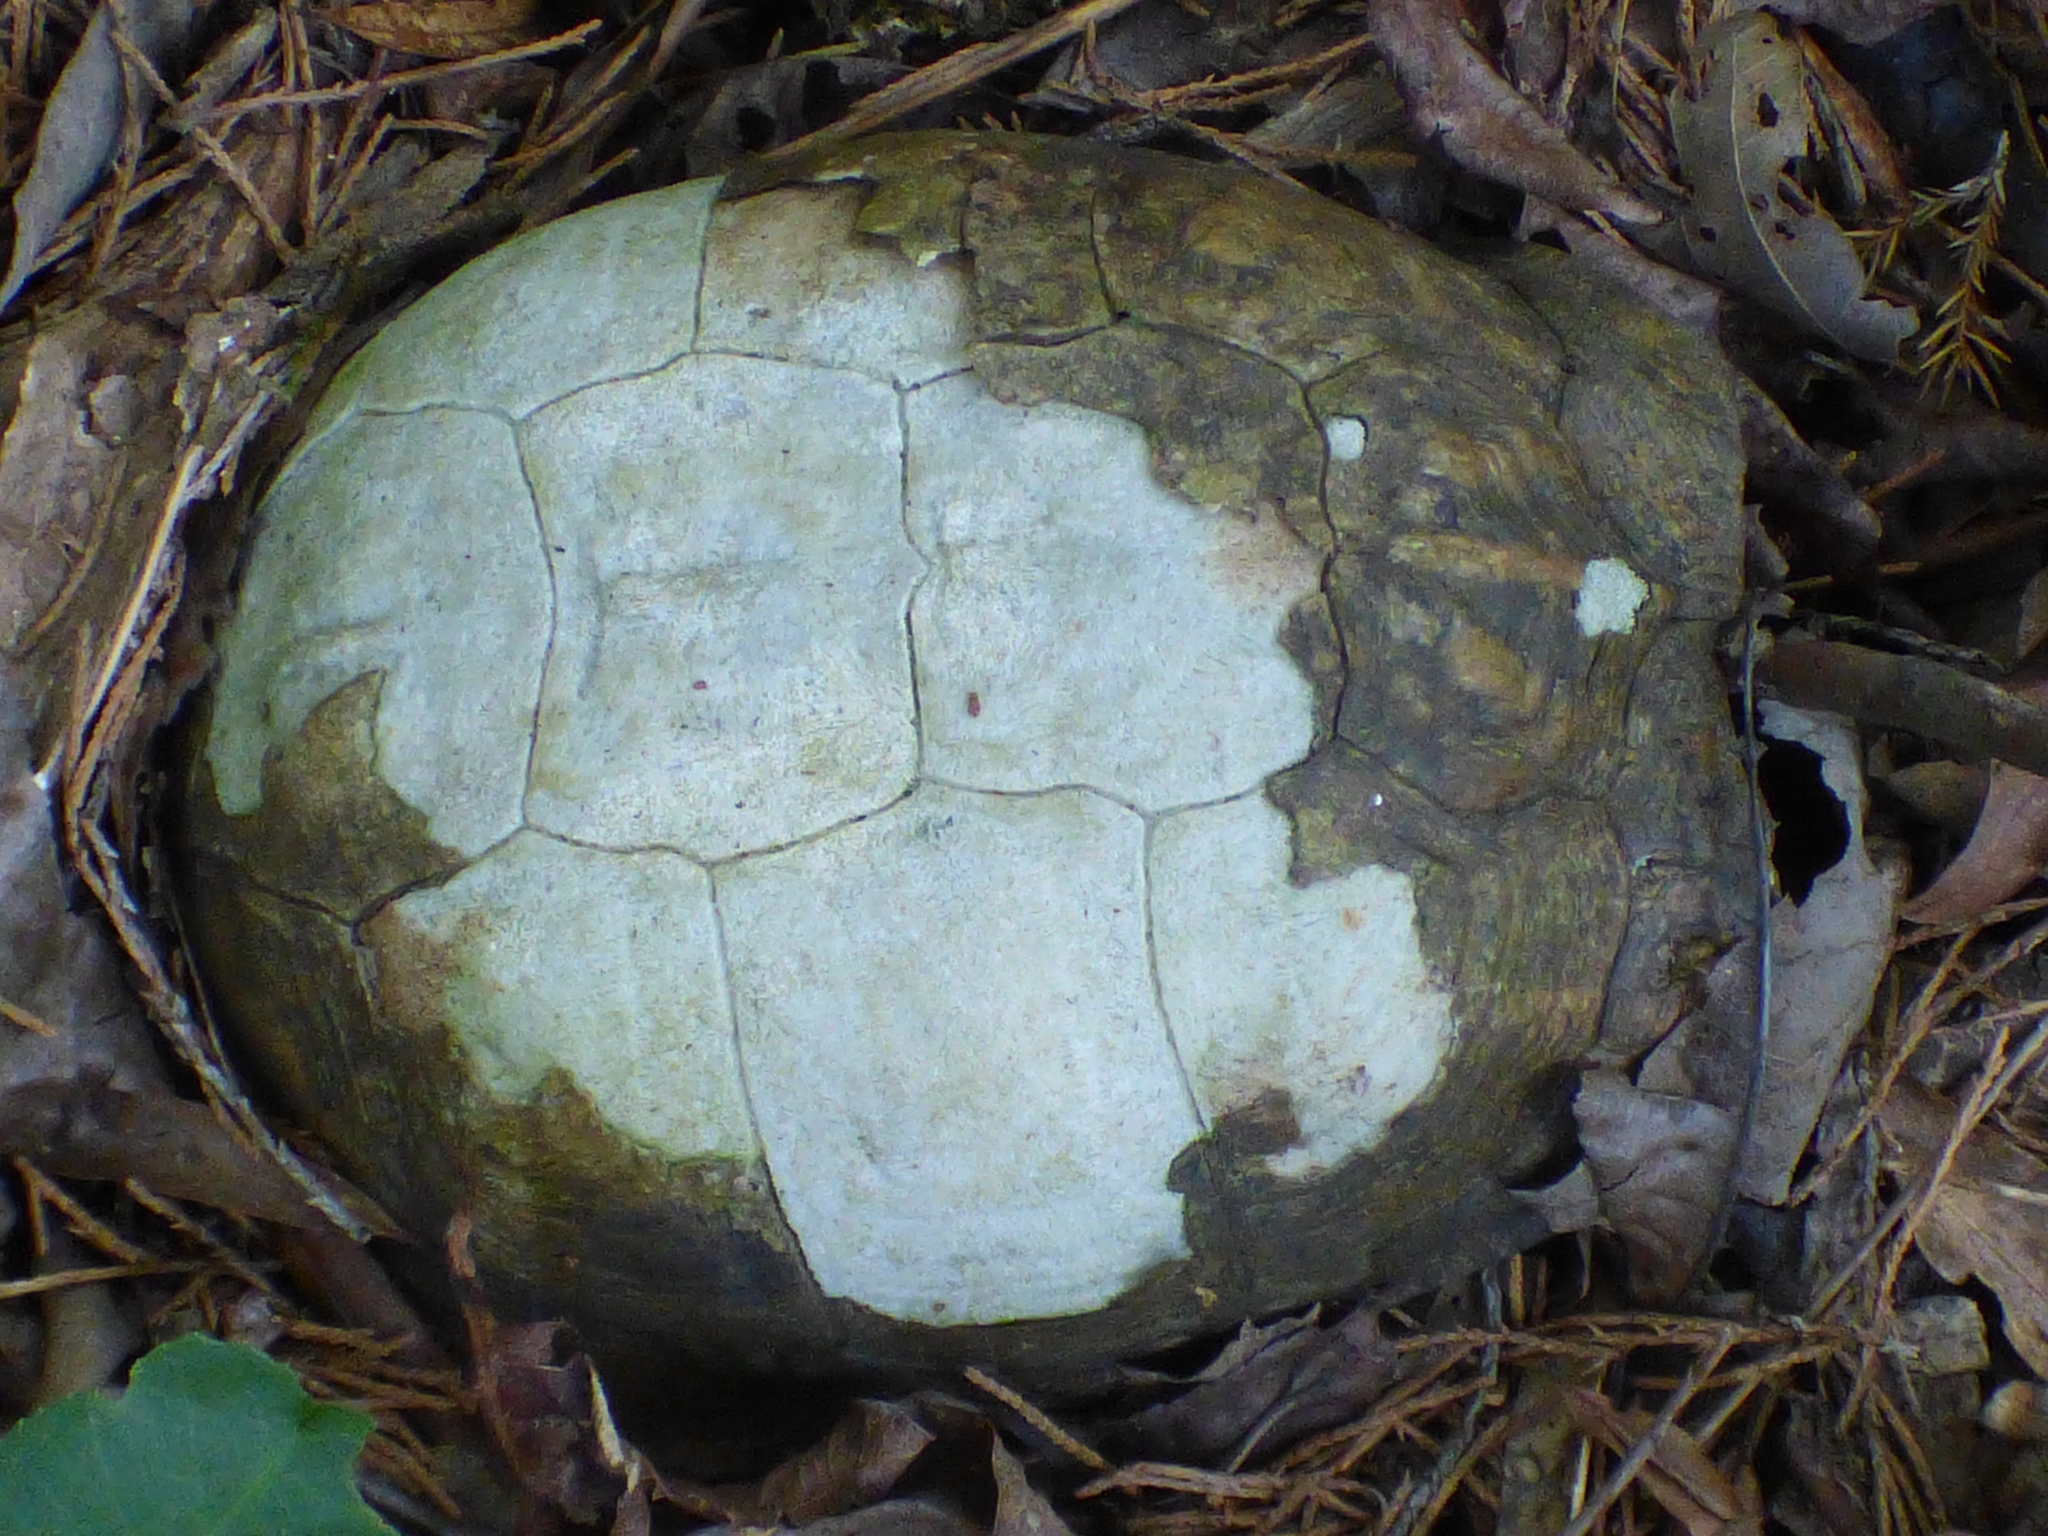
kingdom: Animalia
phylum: Chordata
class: Testudines
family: Emydidae
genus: Terrapene
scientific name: Terrapene carolina
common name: Common box turtle
